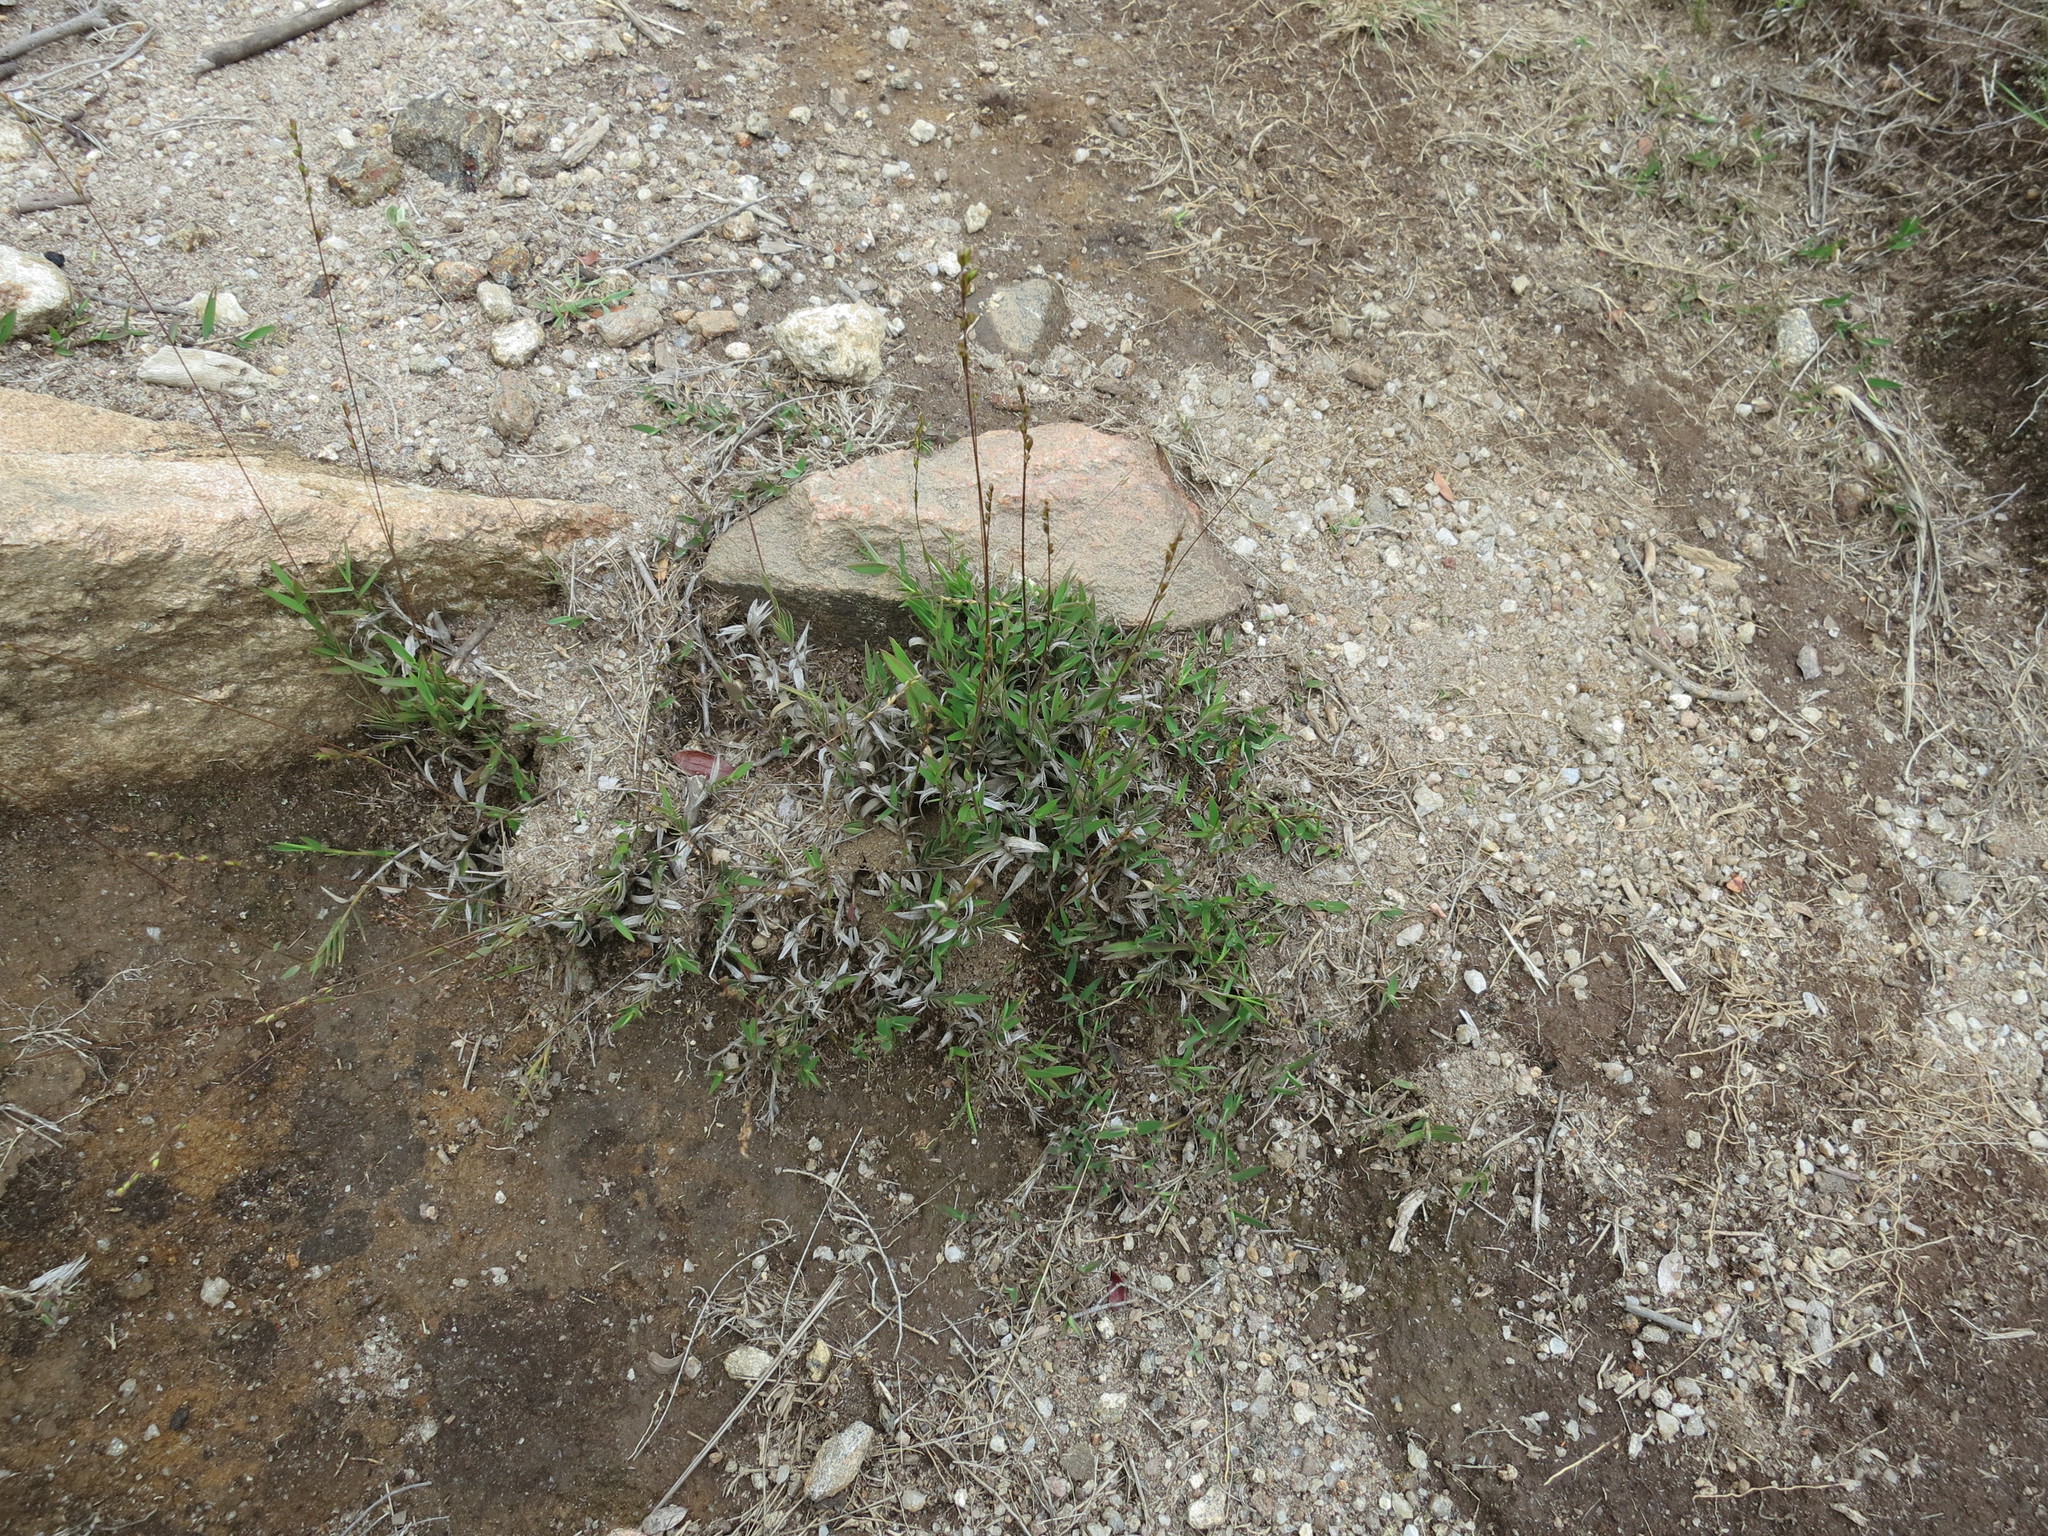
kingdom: Plantae
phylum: Tracheophyta
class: Liliopsida
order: Poales
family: Poaceae
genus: Urochloa
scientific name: Urochloa Brachiaria dimorpha
